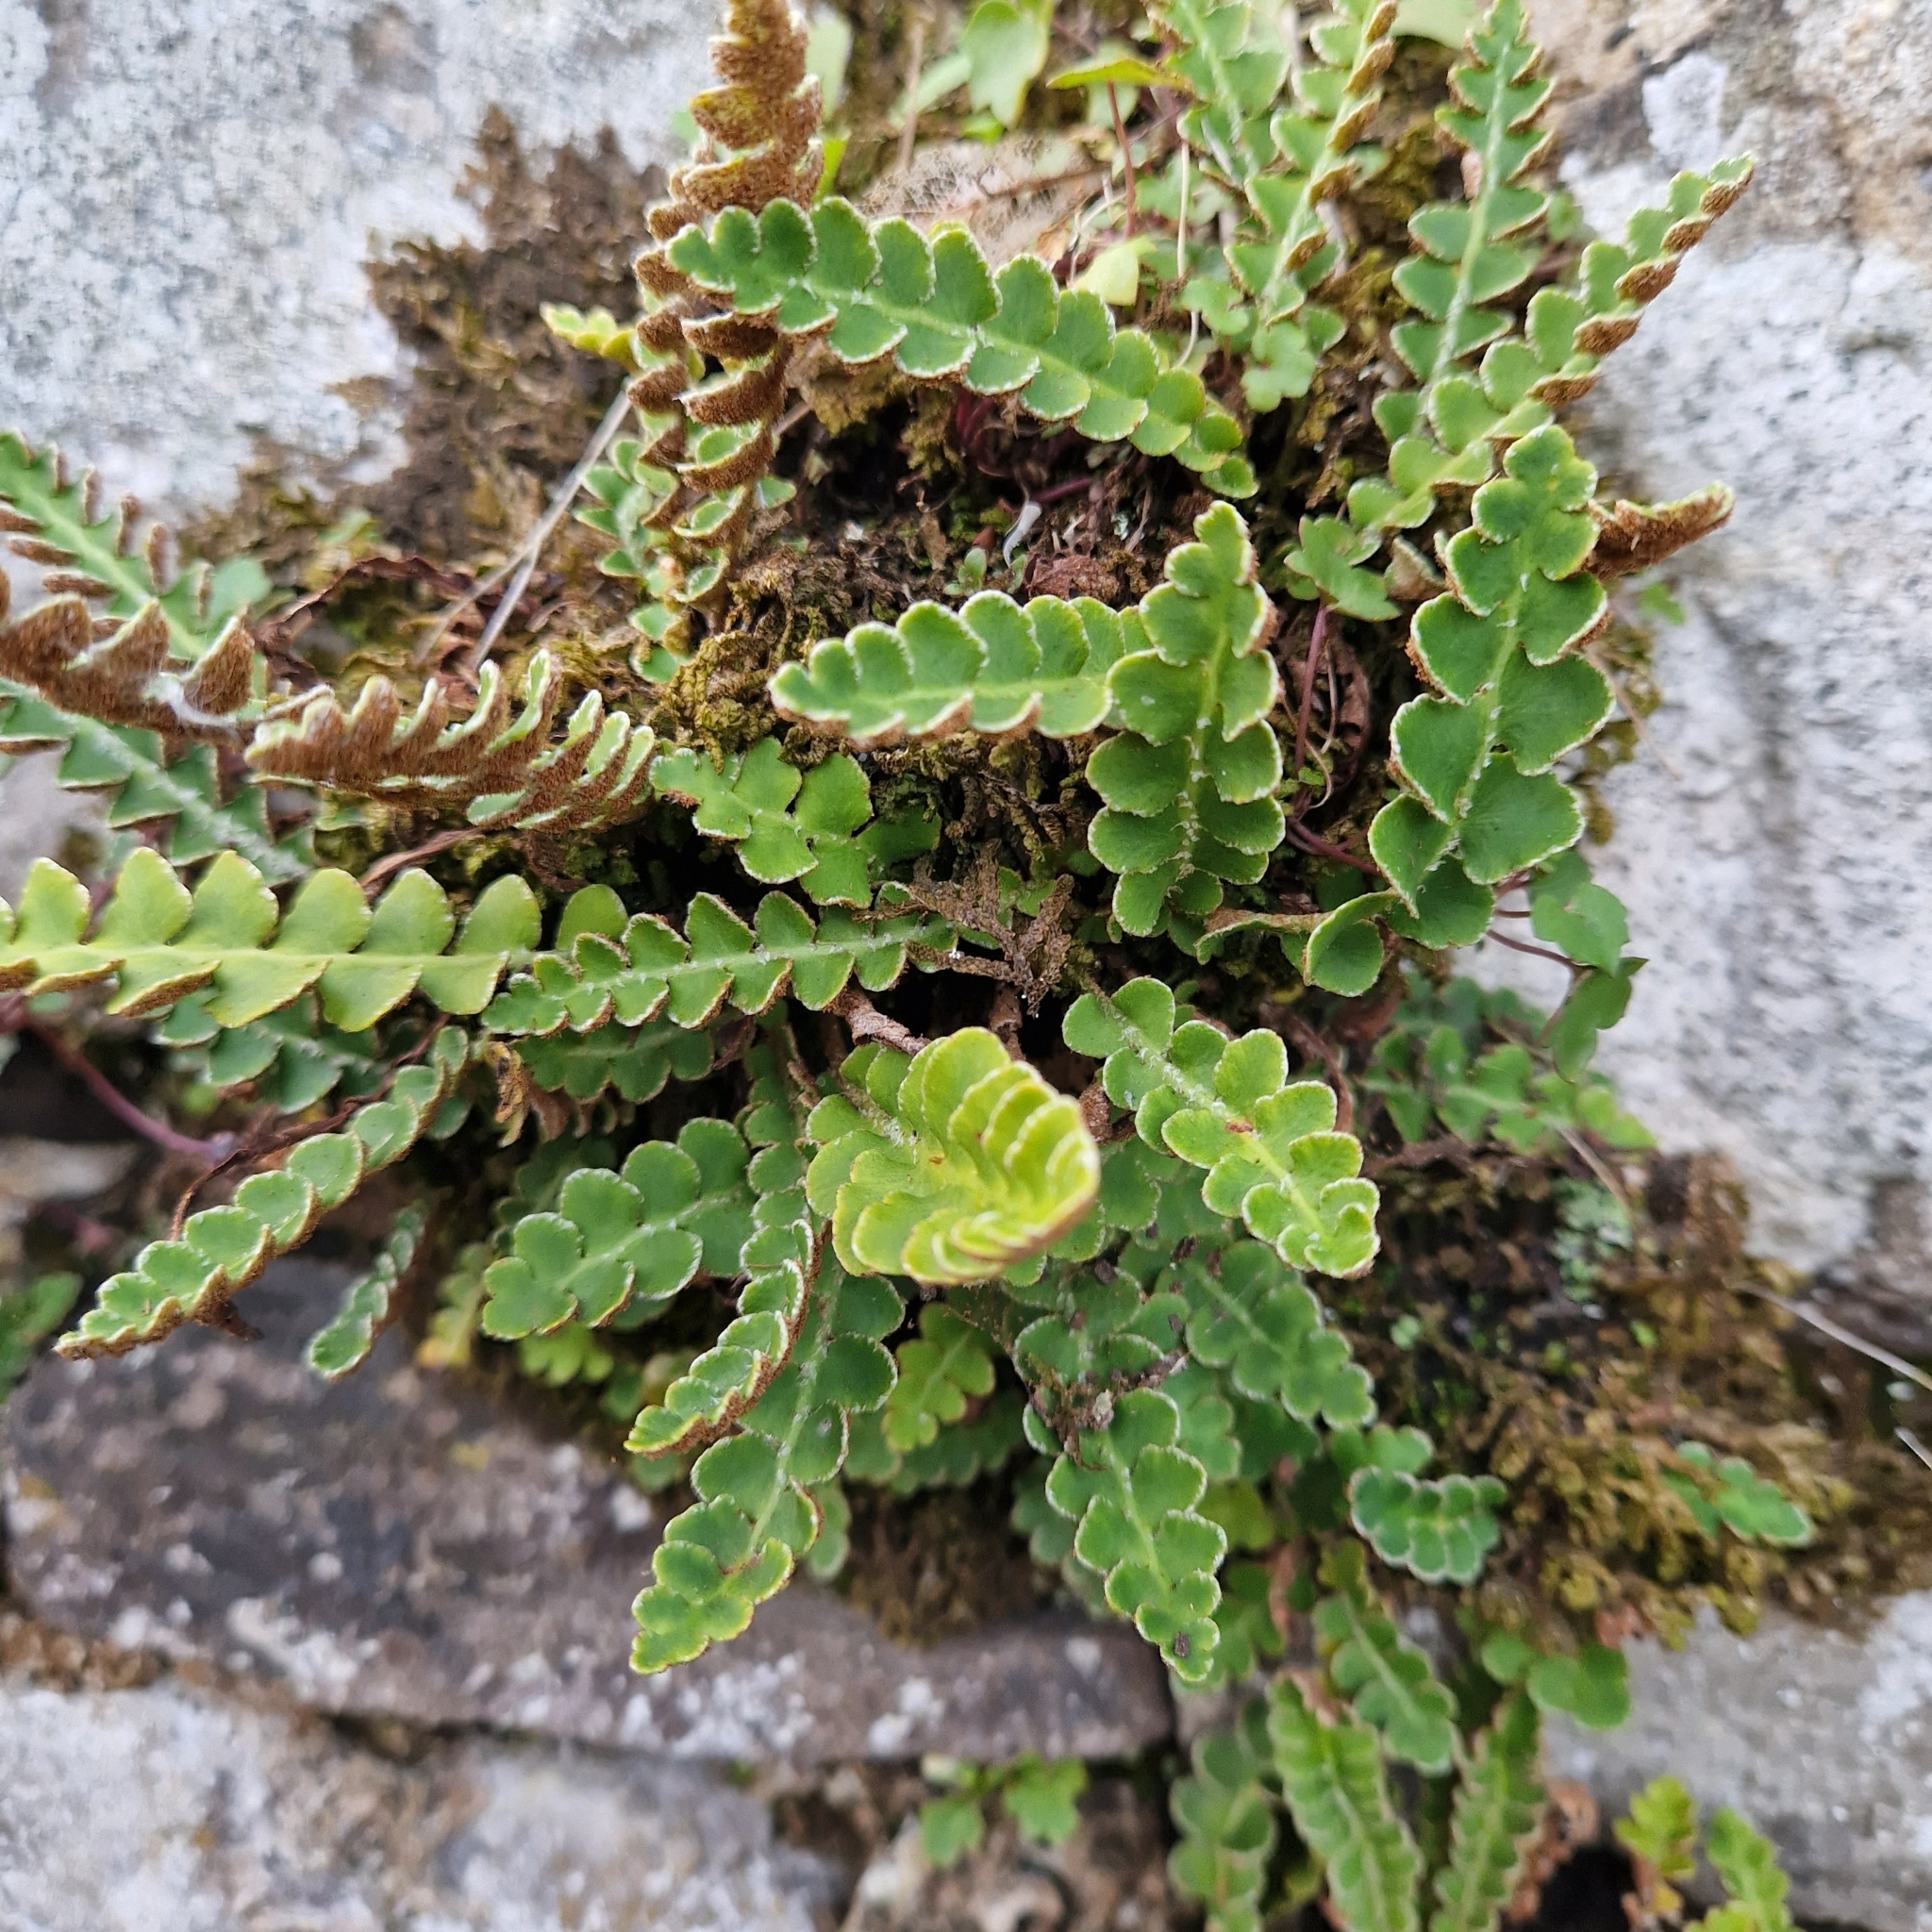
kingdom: Plantae
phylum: Tracheophyta
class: Polypodiopsida
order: Polypodiales
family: Aspleniaceae
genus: Asplenium
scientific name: Asplenium ceterach
